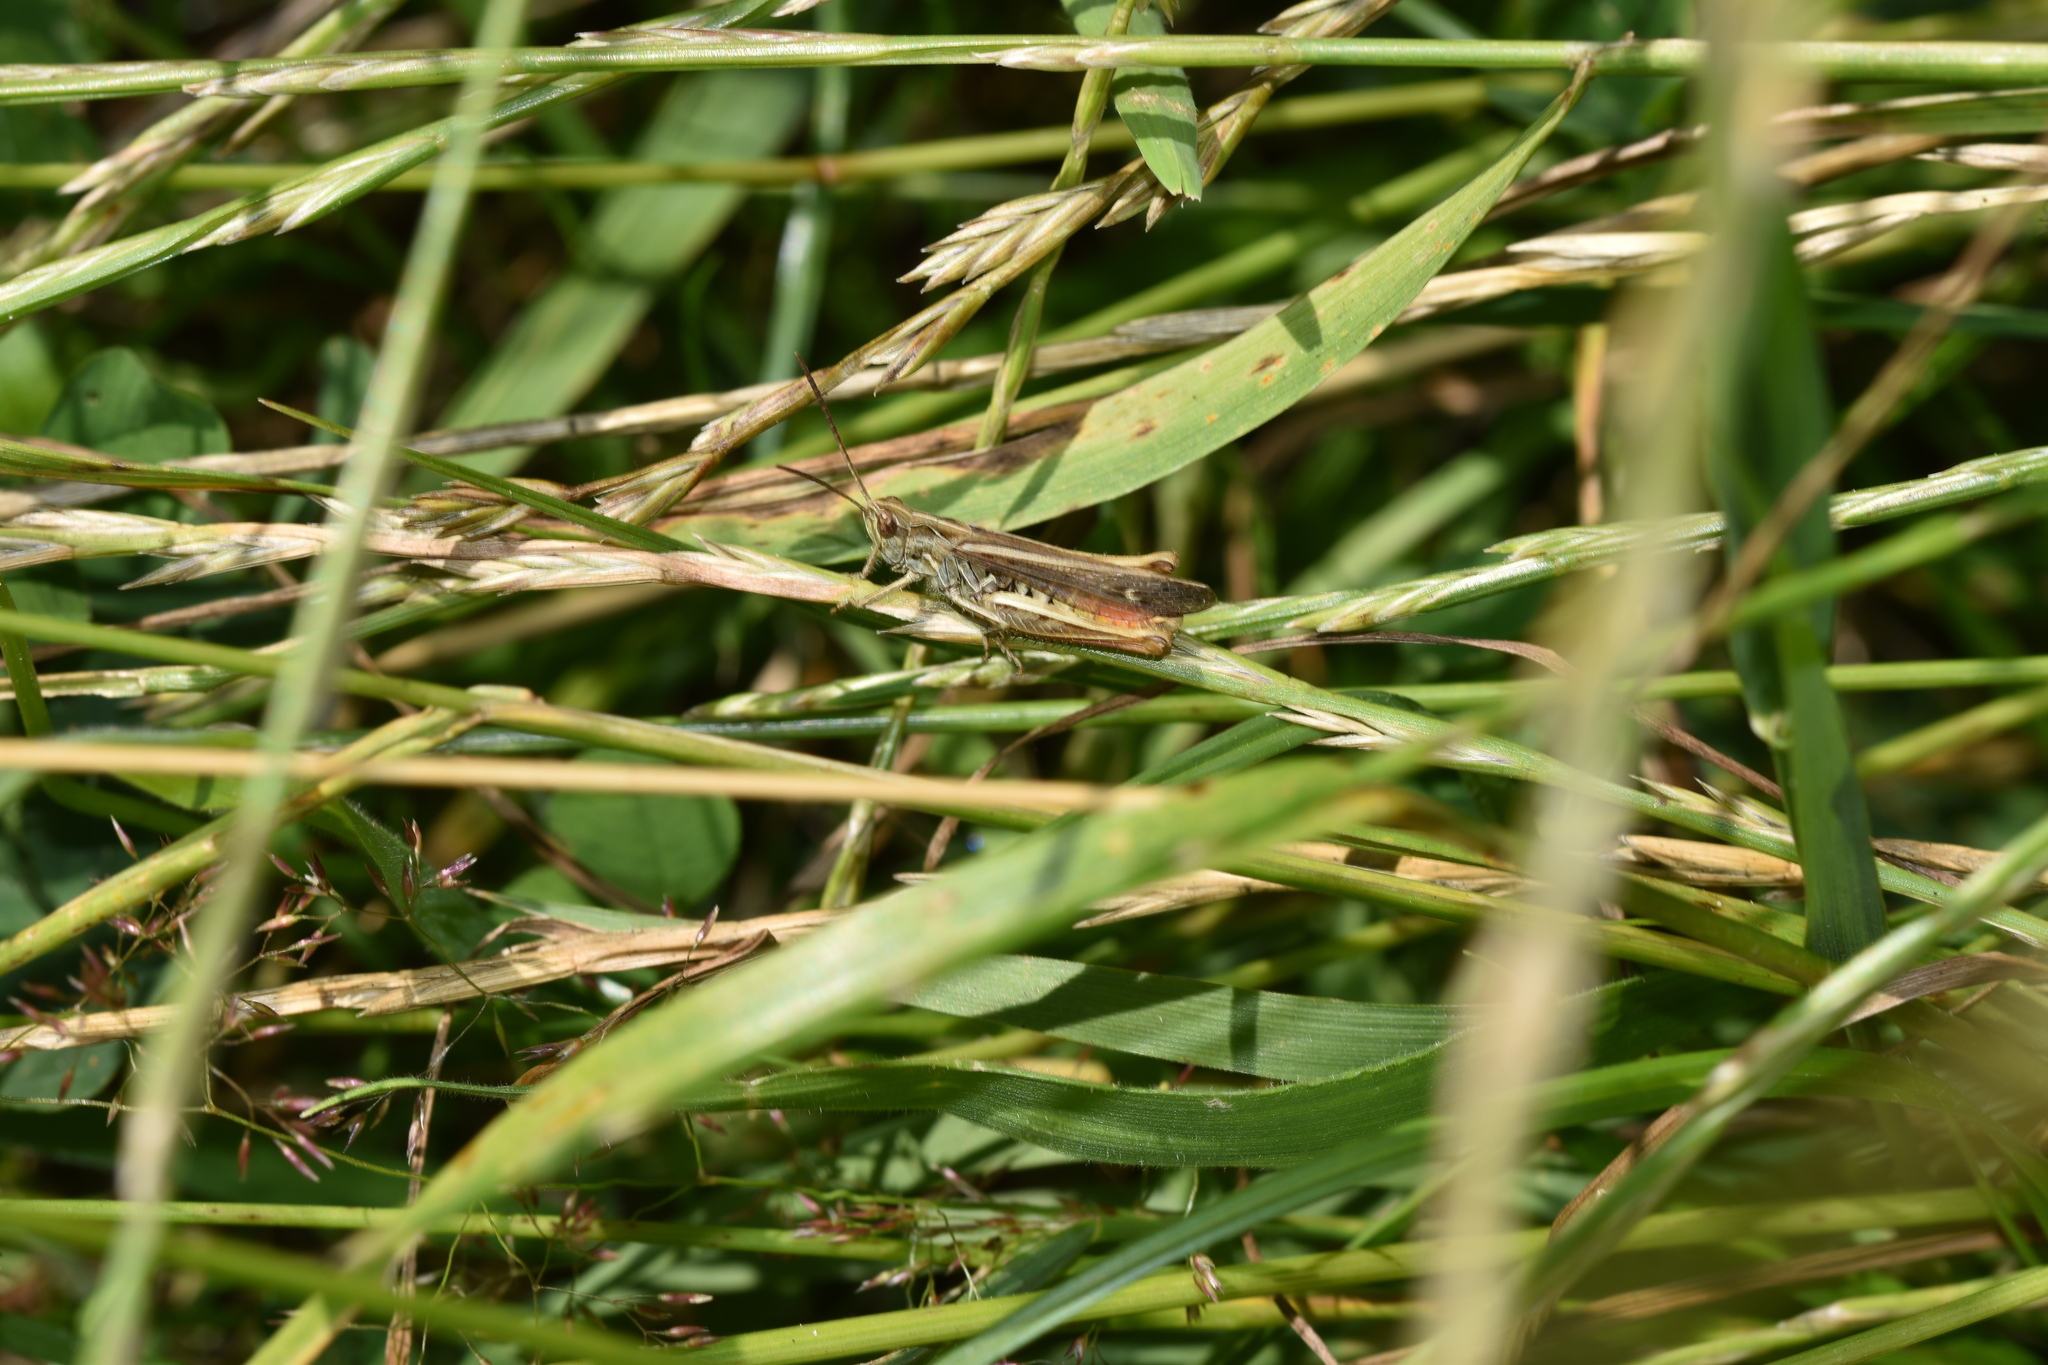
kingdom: Animalia
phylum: Arthropoda
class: Insecta
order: Orthoptera
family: Acrididae
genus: Chorthippus
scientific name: Chorthippus biguttulus
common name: Bow-winged grasshopper
